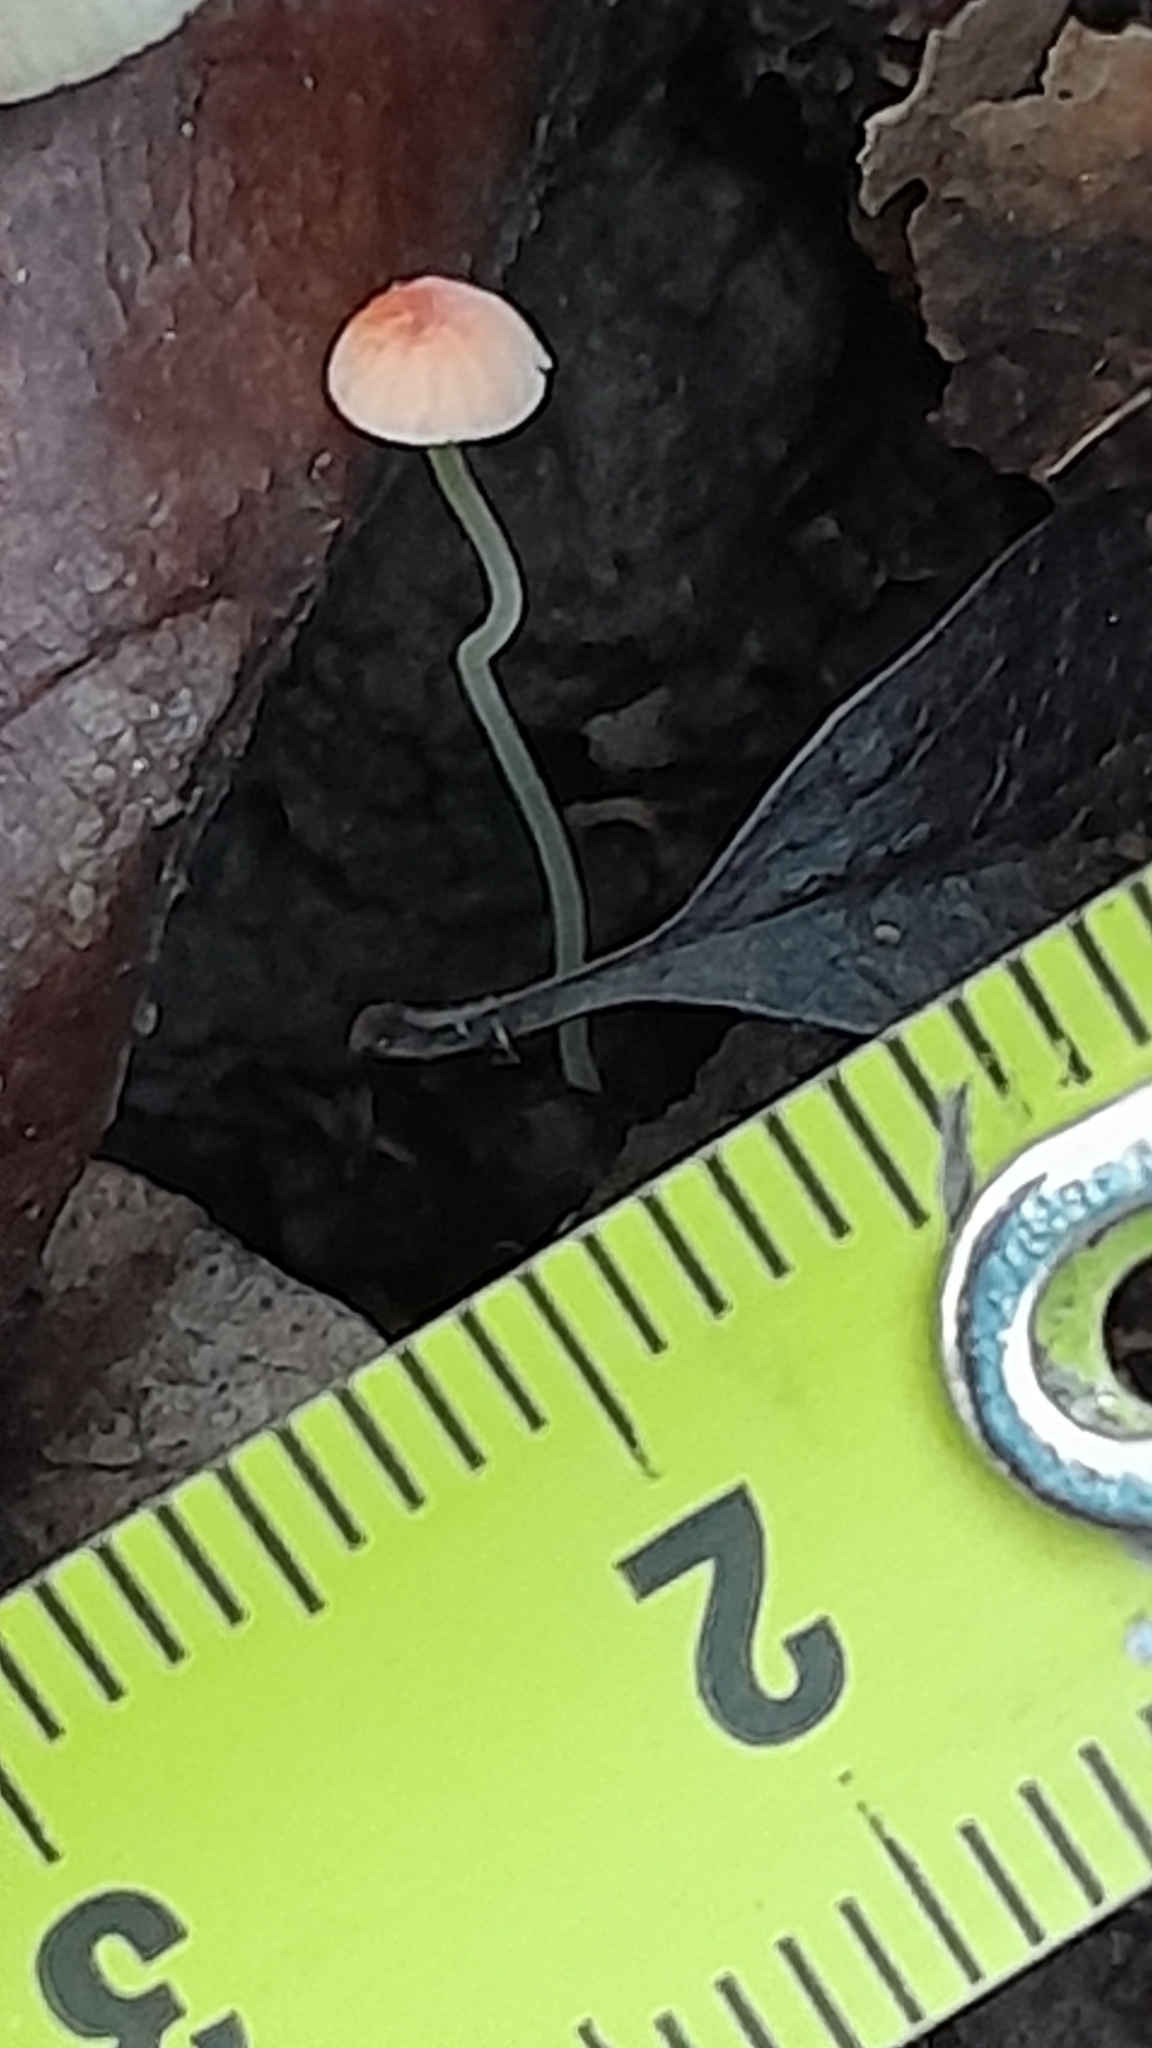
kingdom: Fungi
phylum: Basidiomycota
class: Agaricomycetes
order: Agaricales
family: Mycenaceae
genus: Mycena
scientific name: Mycena acicula
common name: Orange bonnet
